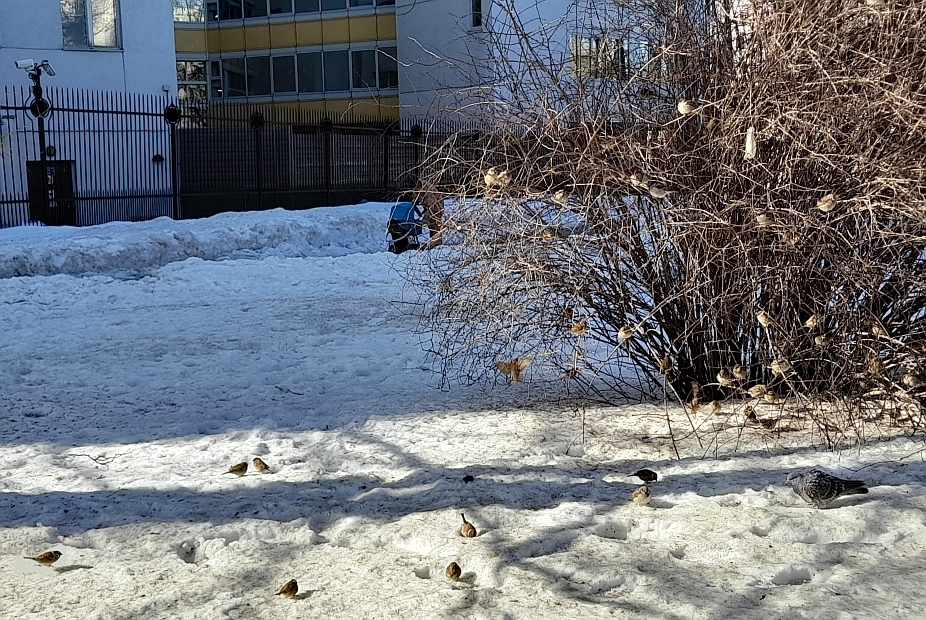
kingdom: Animalia
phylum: Chordata
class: Aves
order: Passeriformes
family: Passeridae
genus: Passer
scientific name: Passer domesticus
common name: House sparrow
